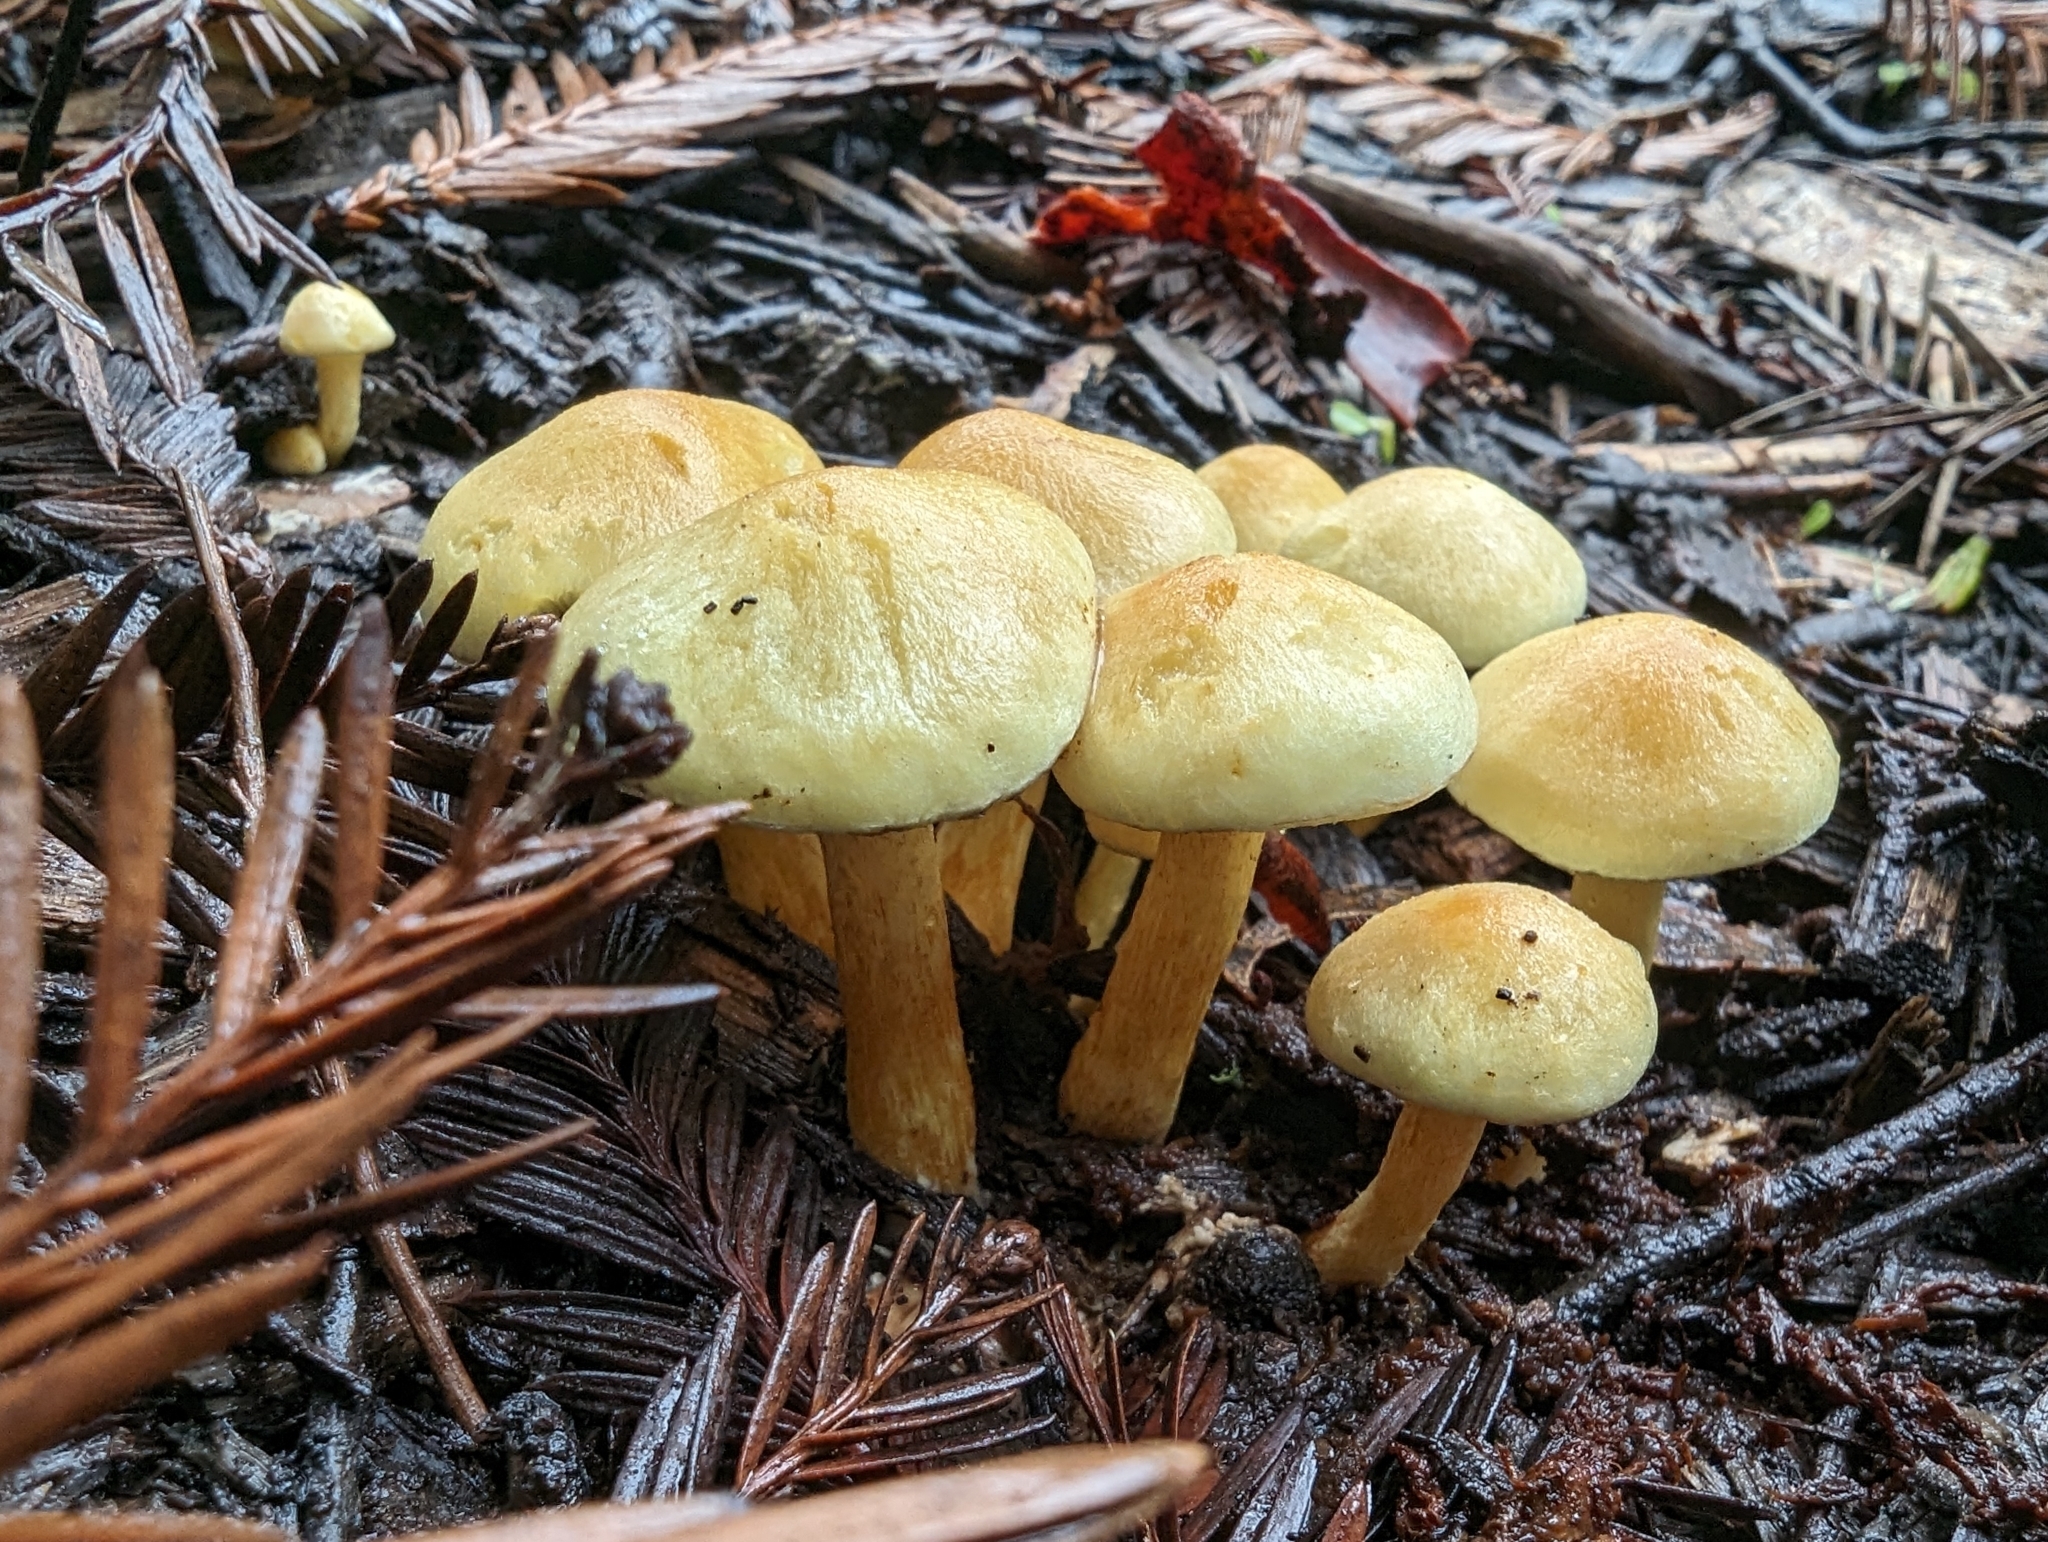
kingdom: Fungi
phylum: Basidiomycota
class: Agaricomycetes
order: Agaricales
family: Strophariaceae
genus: Hypholoma
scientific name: Hypholoma fasciculare
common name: Sulphur tuft
